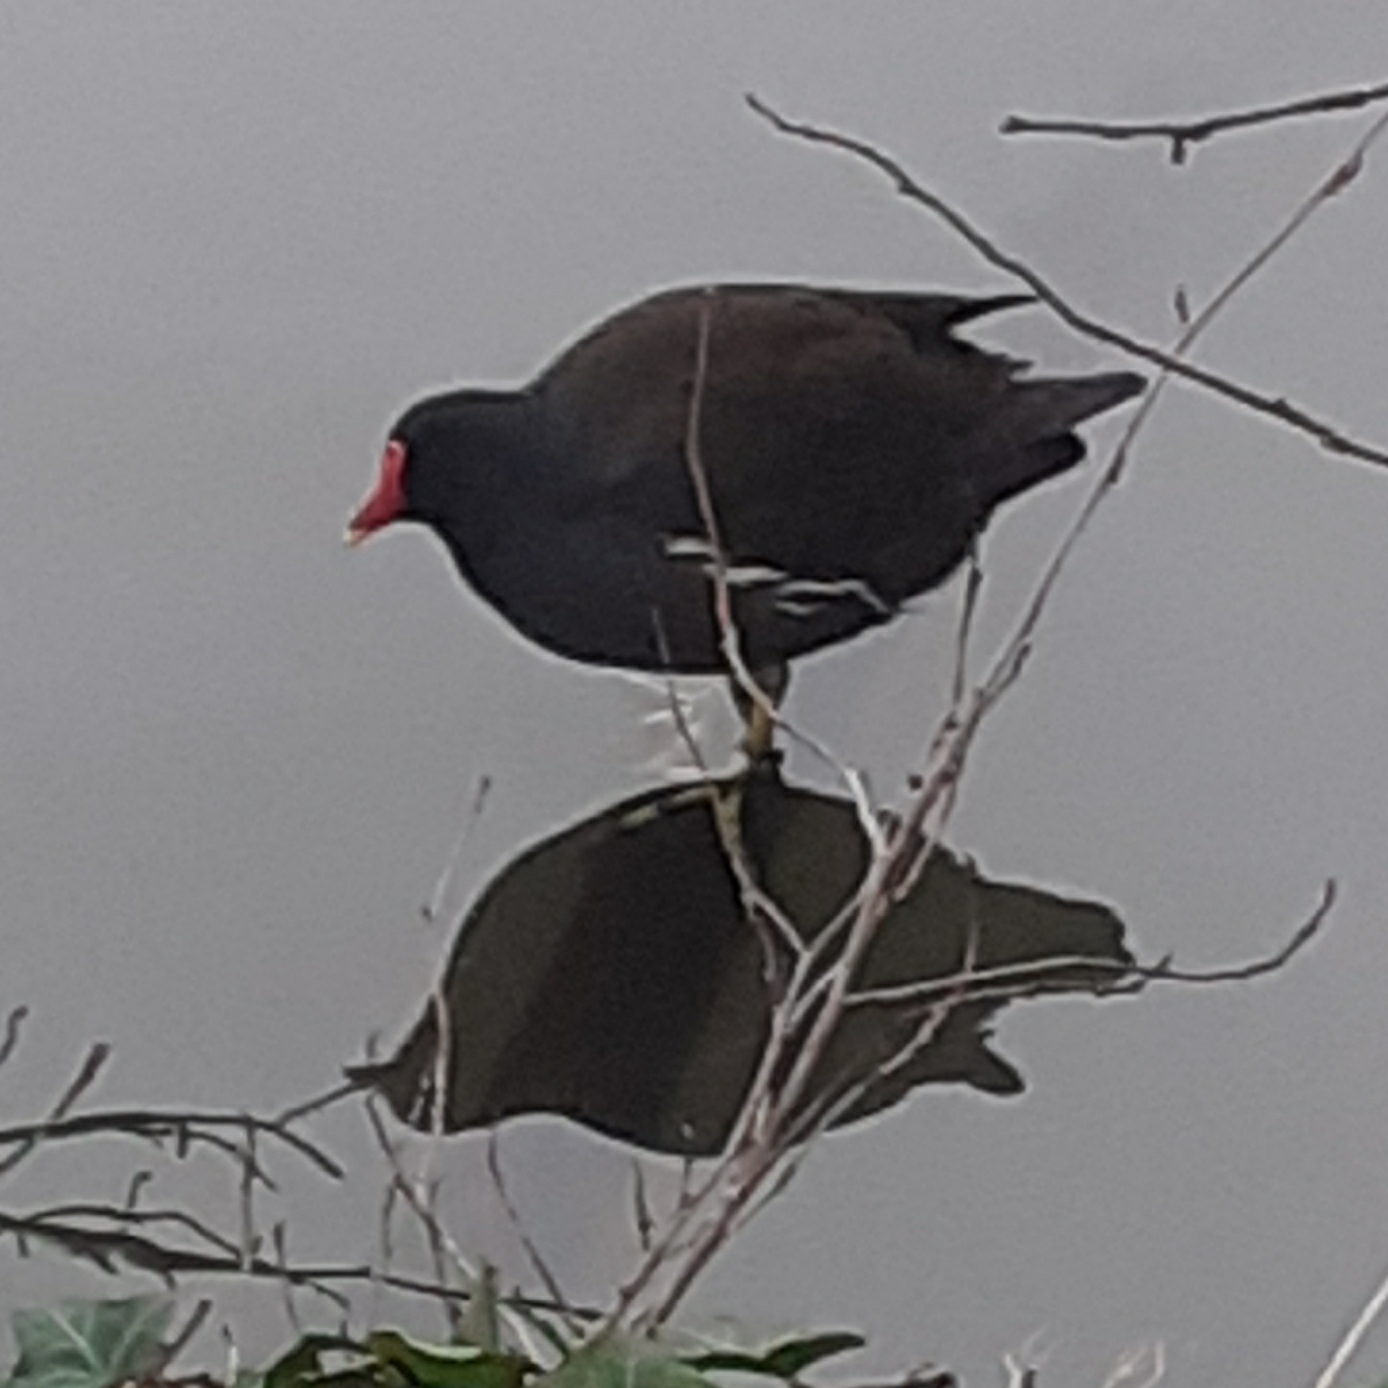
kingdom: Animalia
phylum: Chordata
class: Aves
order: Gruiformes
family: Rallidae
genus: Gallinula
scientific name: Gallinula chloropus
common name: Common moorhen
